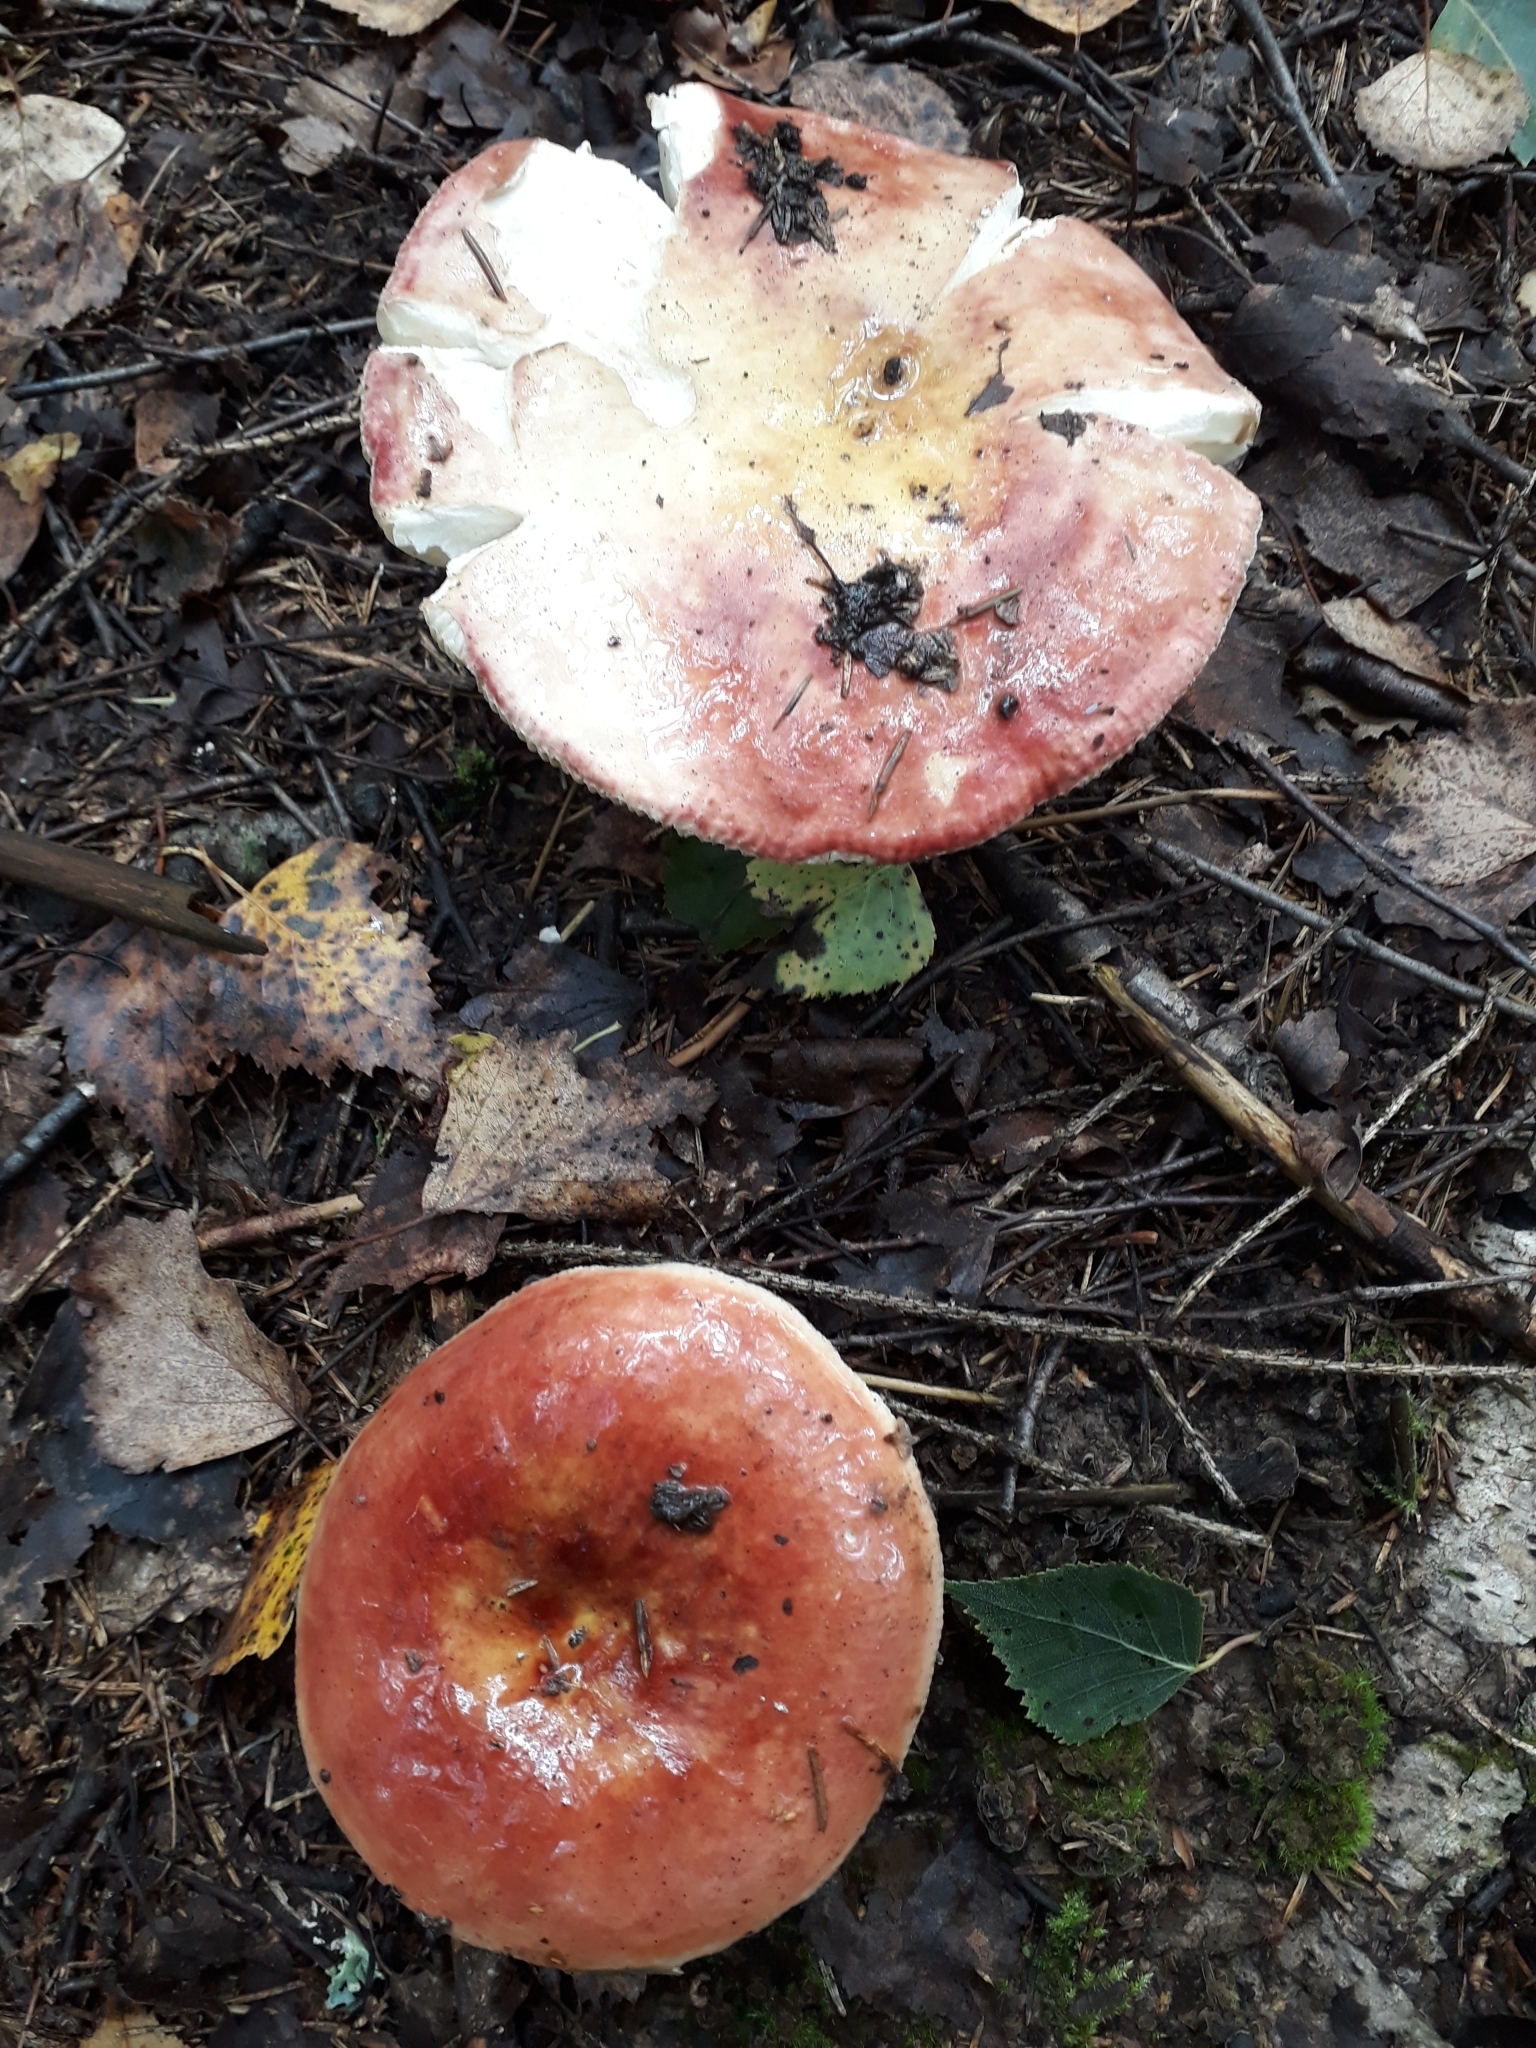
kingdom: Fungi
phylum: Basidiomycota
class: Agaricomycetes
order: Russulales
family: Russulaceae
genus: Russula
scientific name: Russula vesca
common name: Bare-toothed russula
